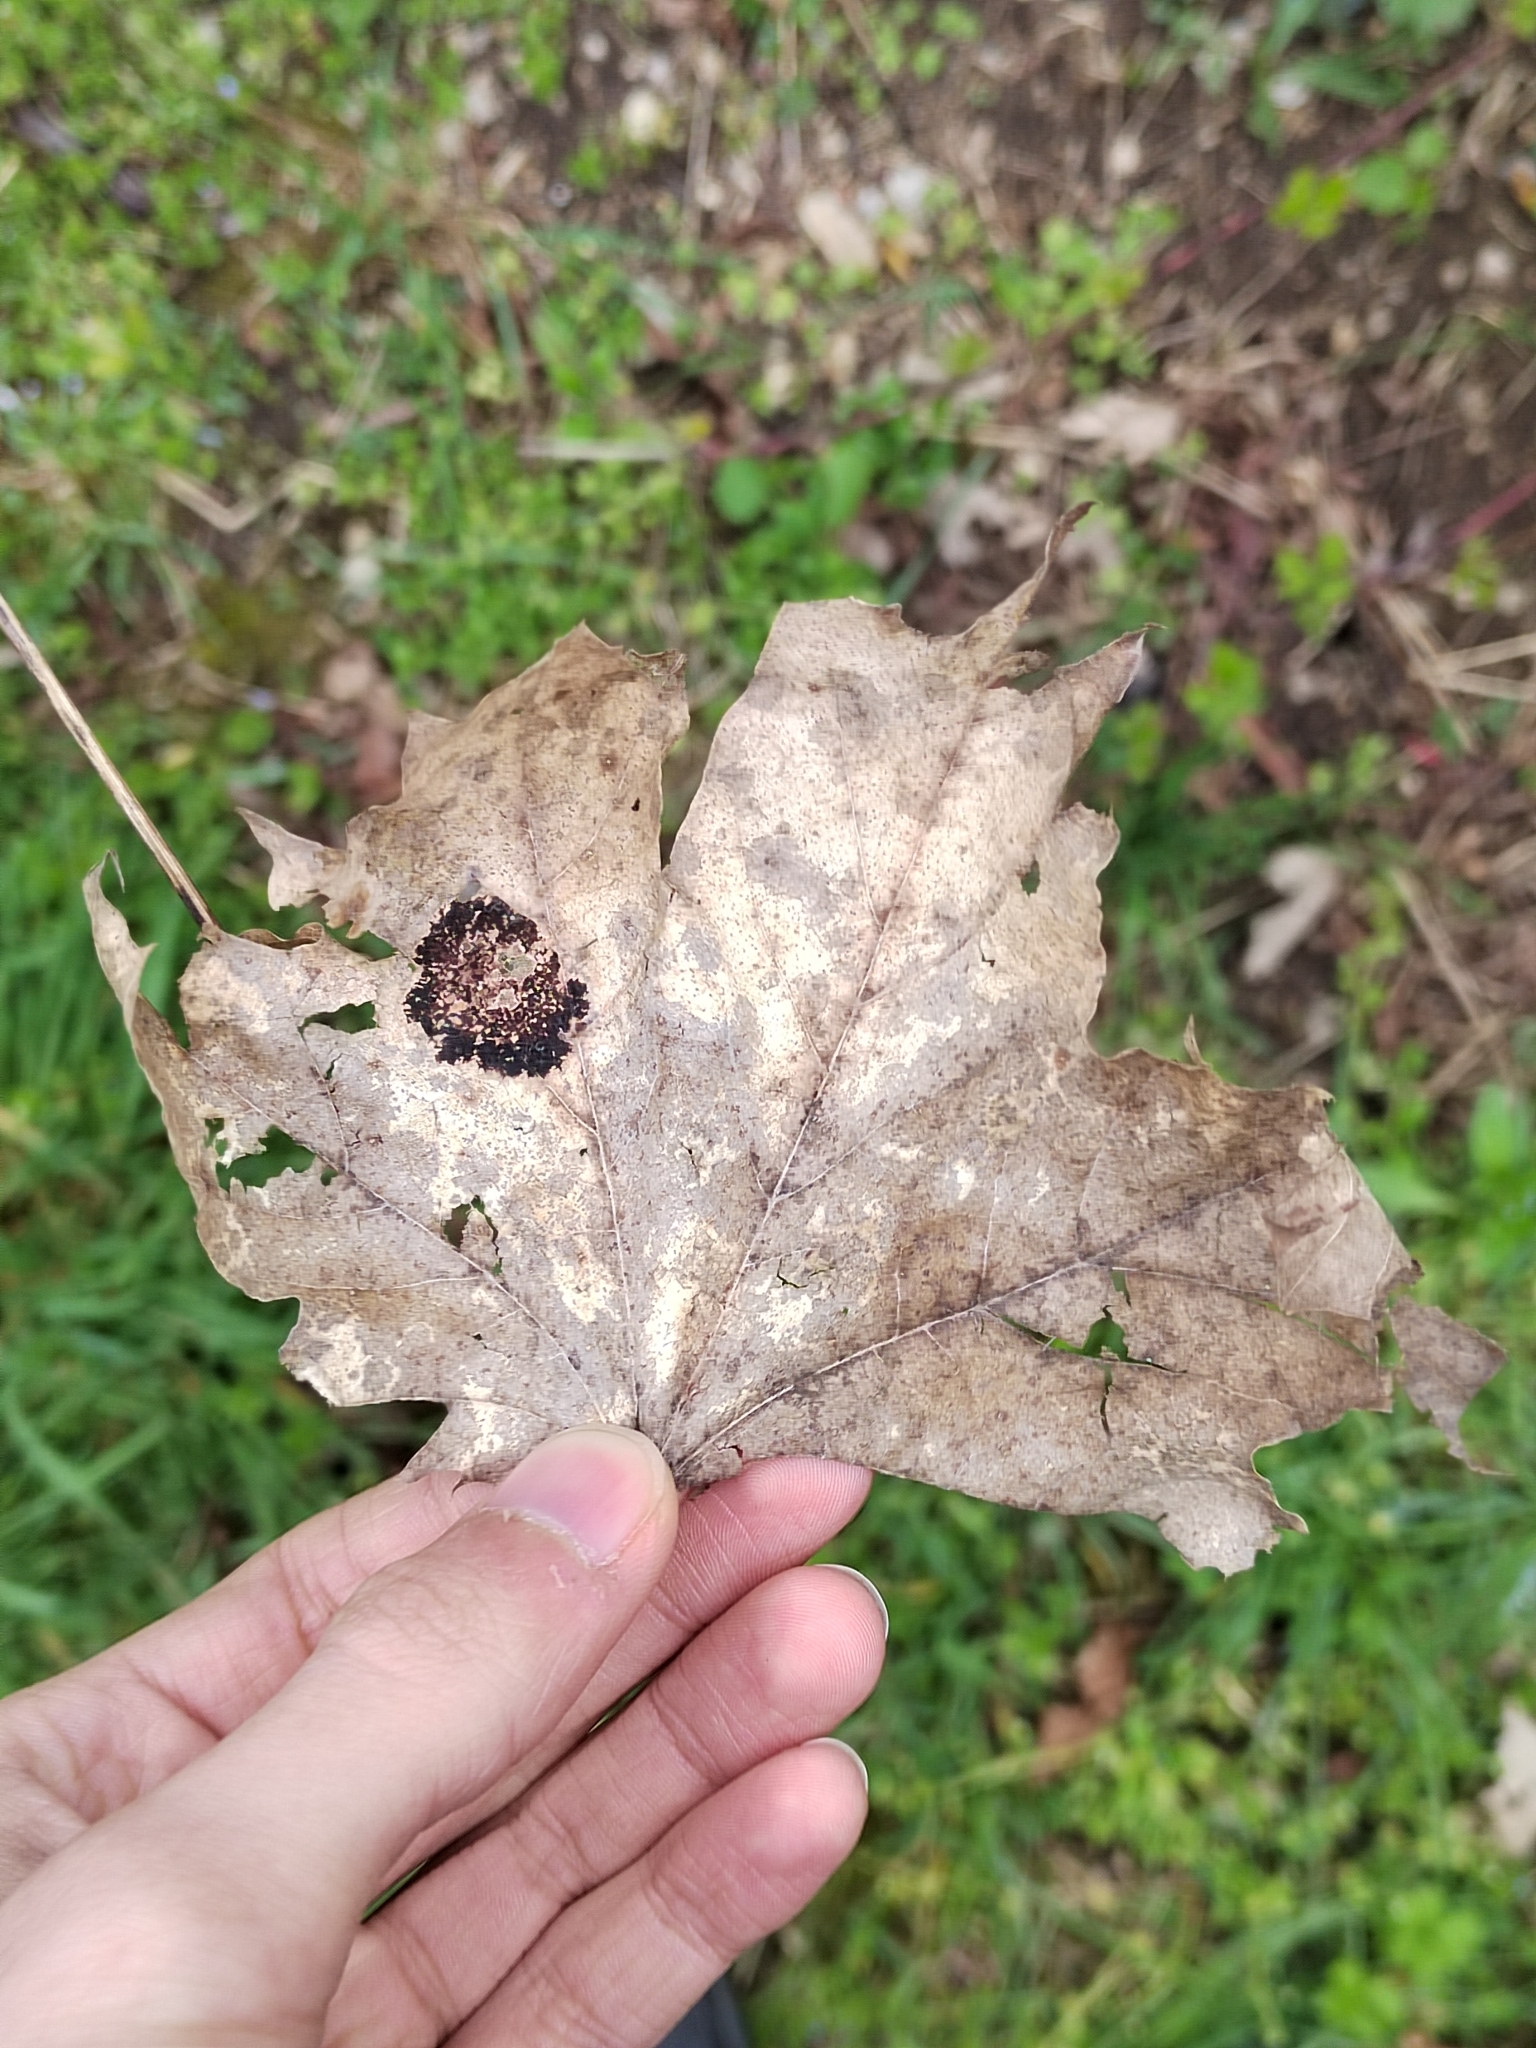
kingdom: Fungi
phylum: Ascomycota
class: Leotiomycetes
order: Rhytismatales
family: Rhytismataceae
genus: Rhytisma
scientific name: Rhytisma acerinum
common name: European tar spot
